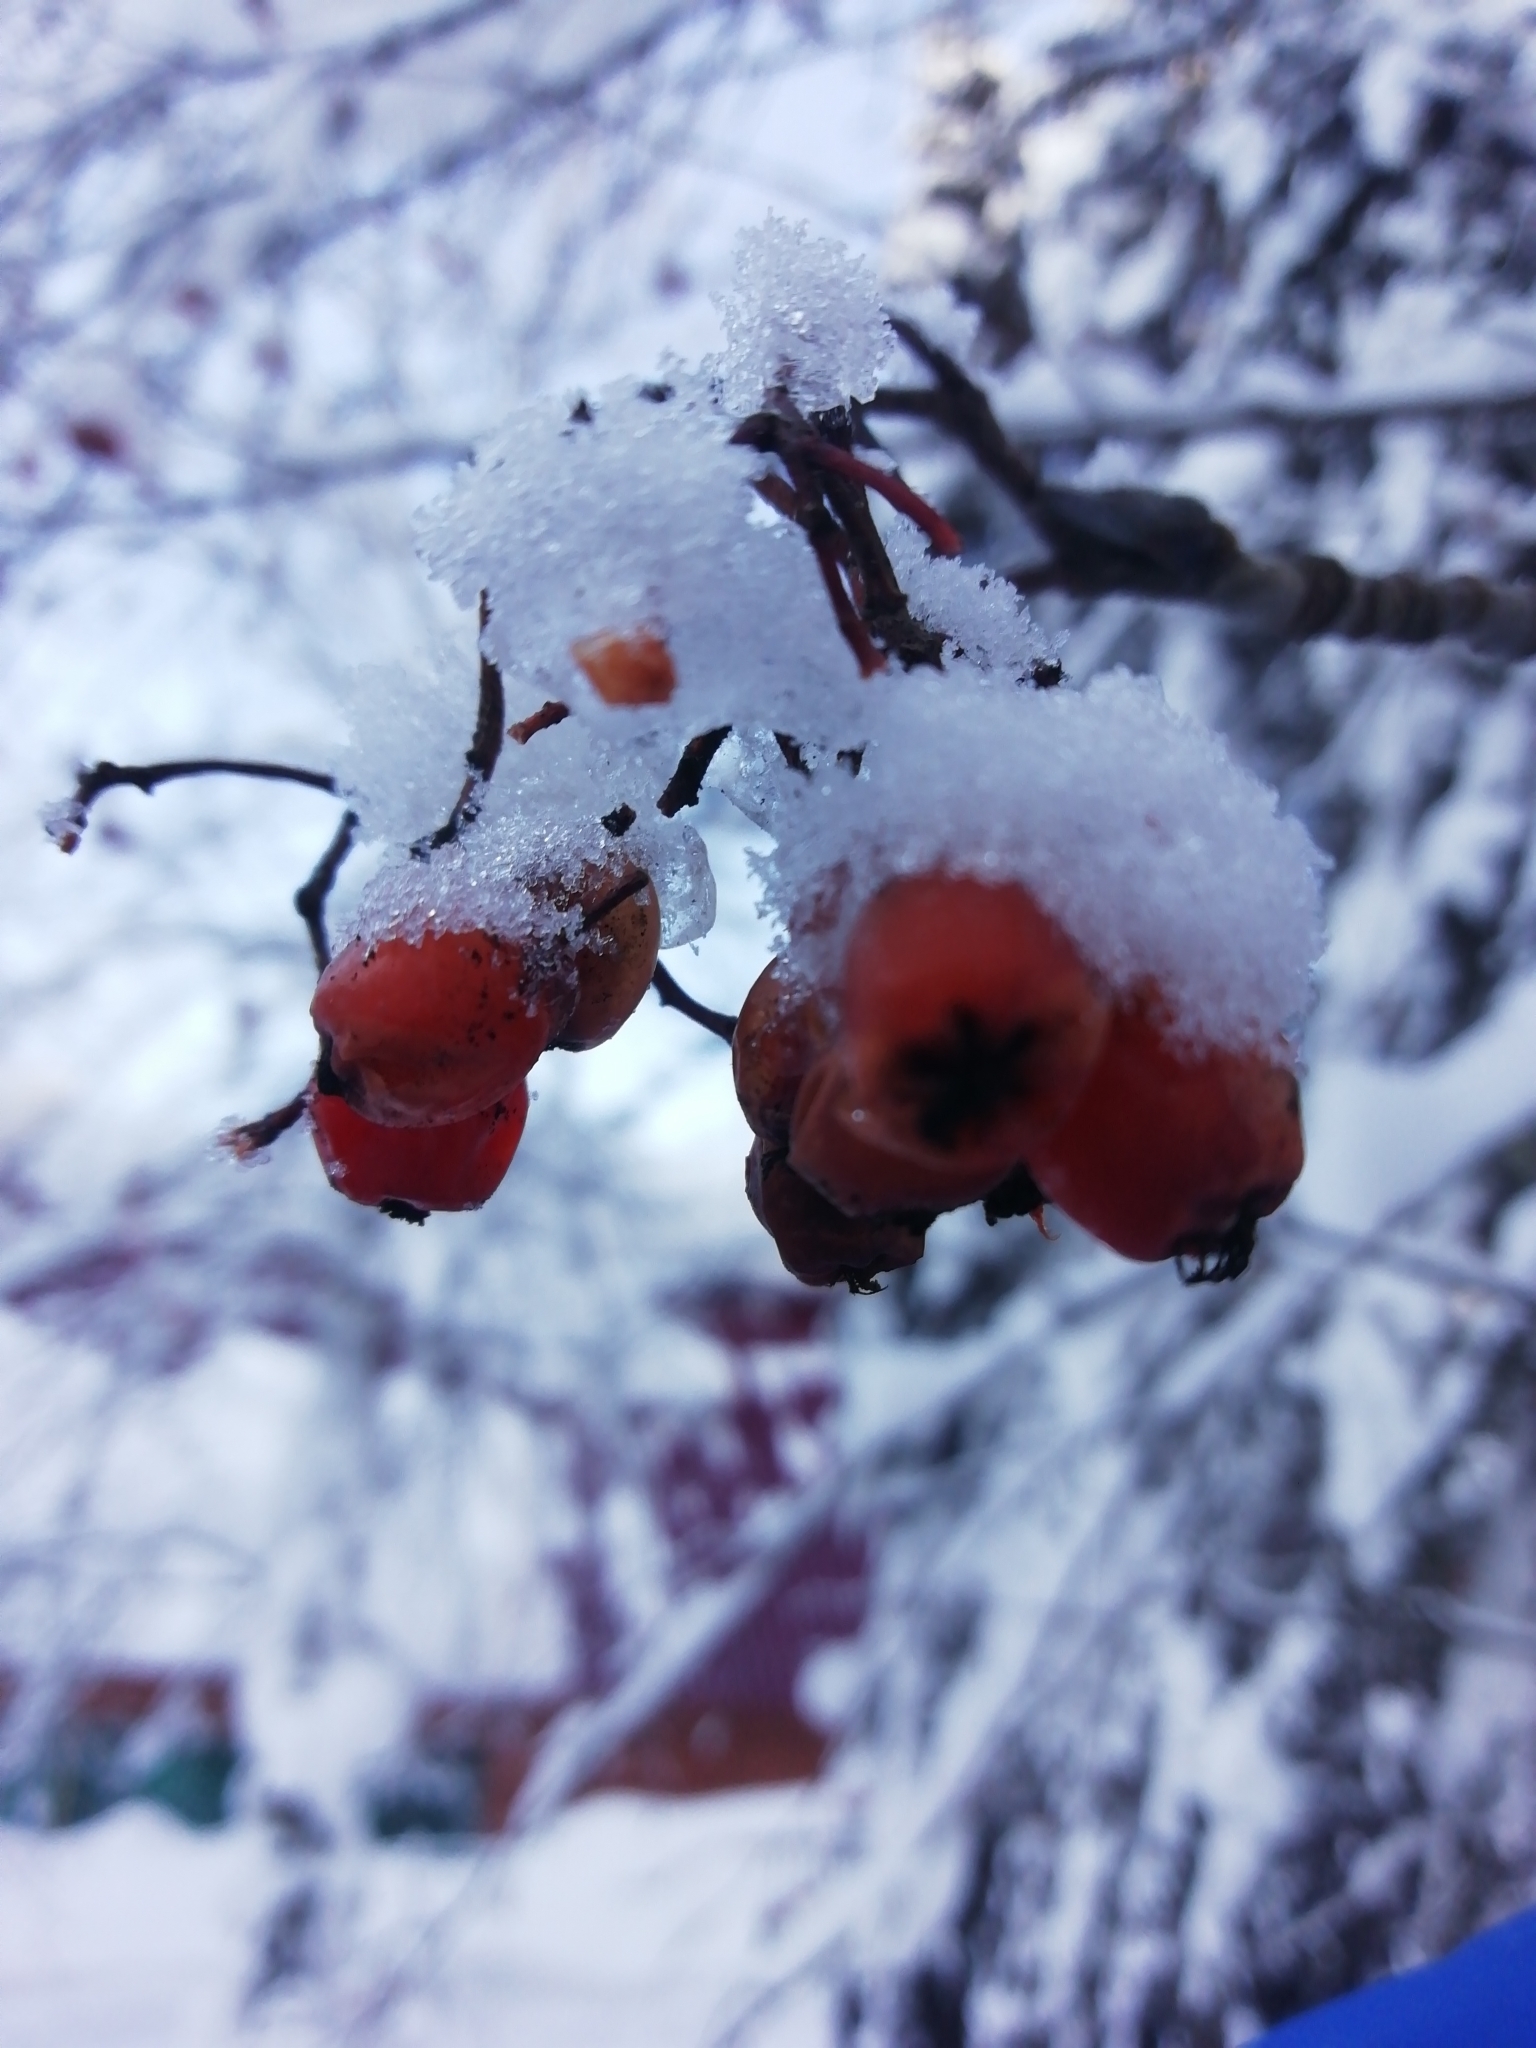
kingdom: Plantae
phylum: Tracheophyta
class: Magnoliopsida
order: Rosales
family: Rosaceae
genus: Sorbus
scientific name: Sorbus aucuparia
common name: Rowan
